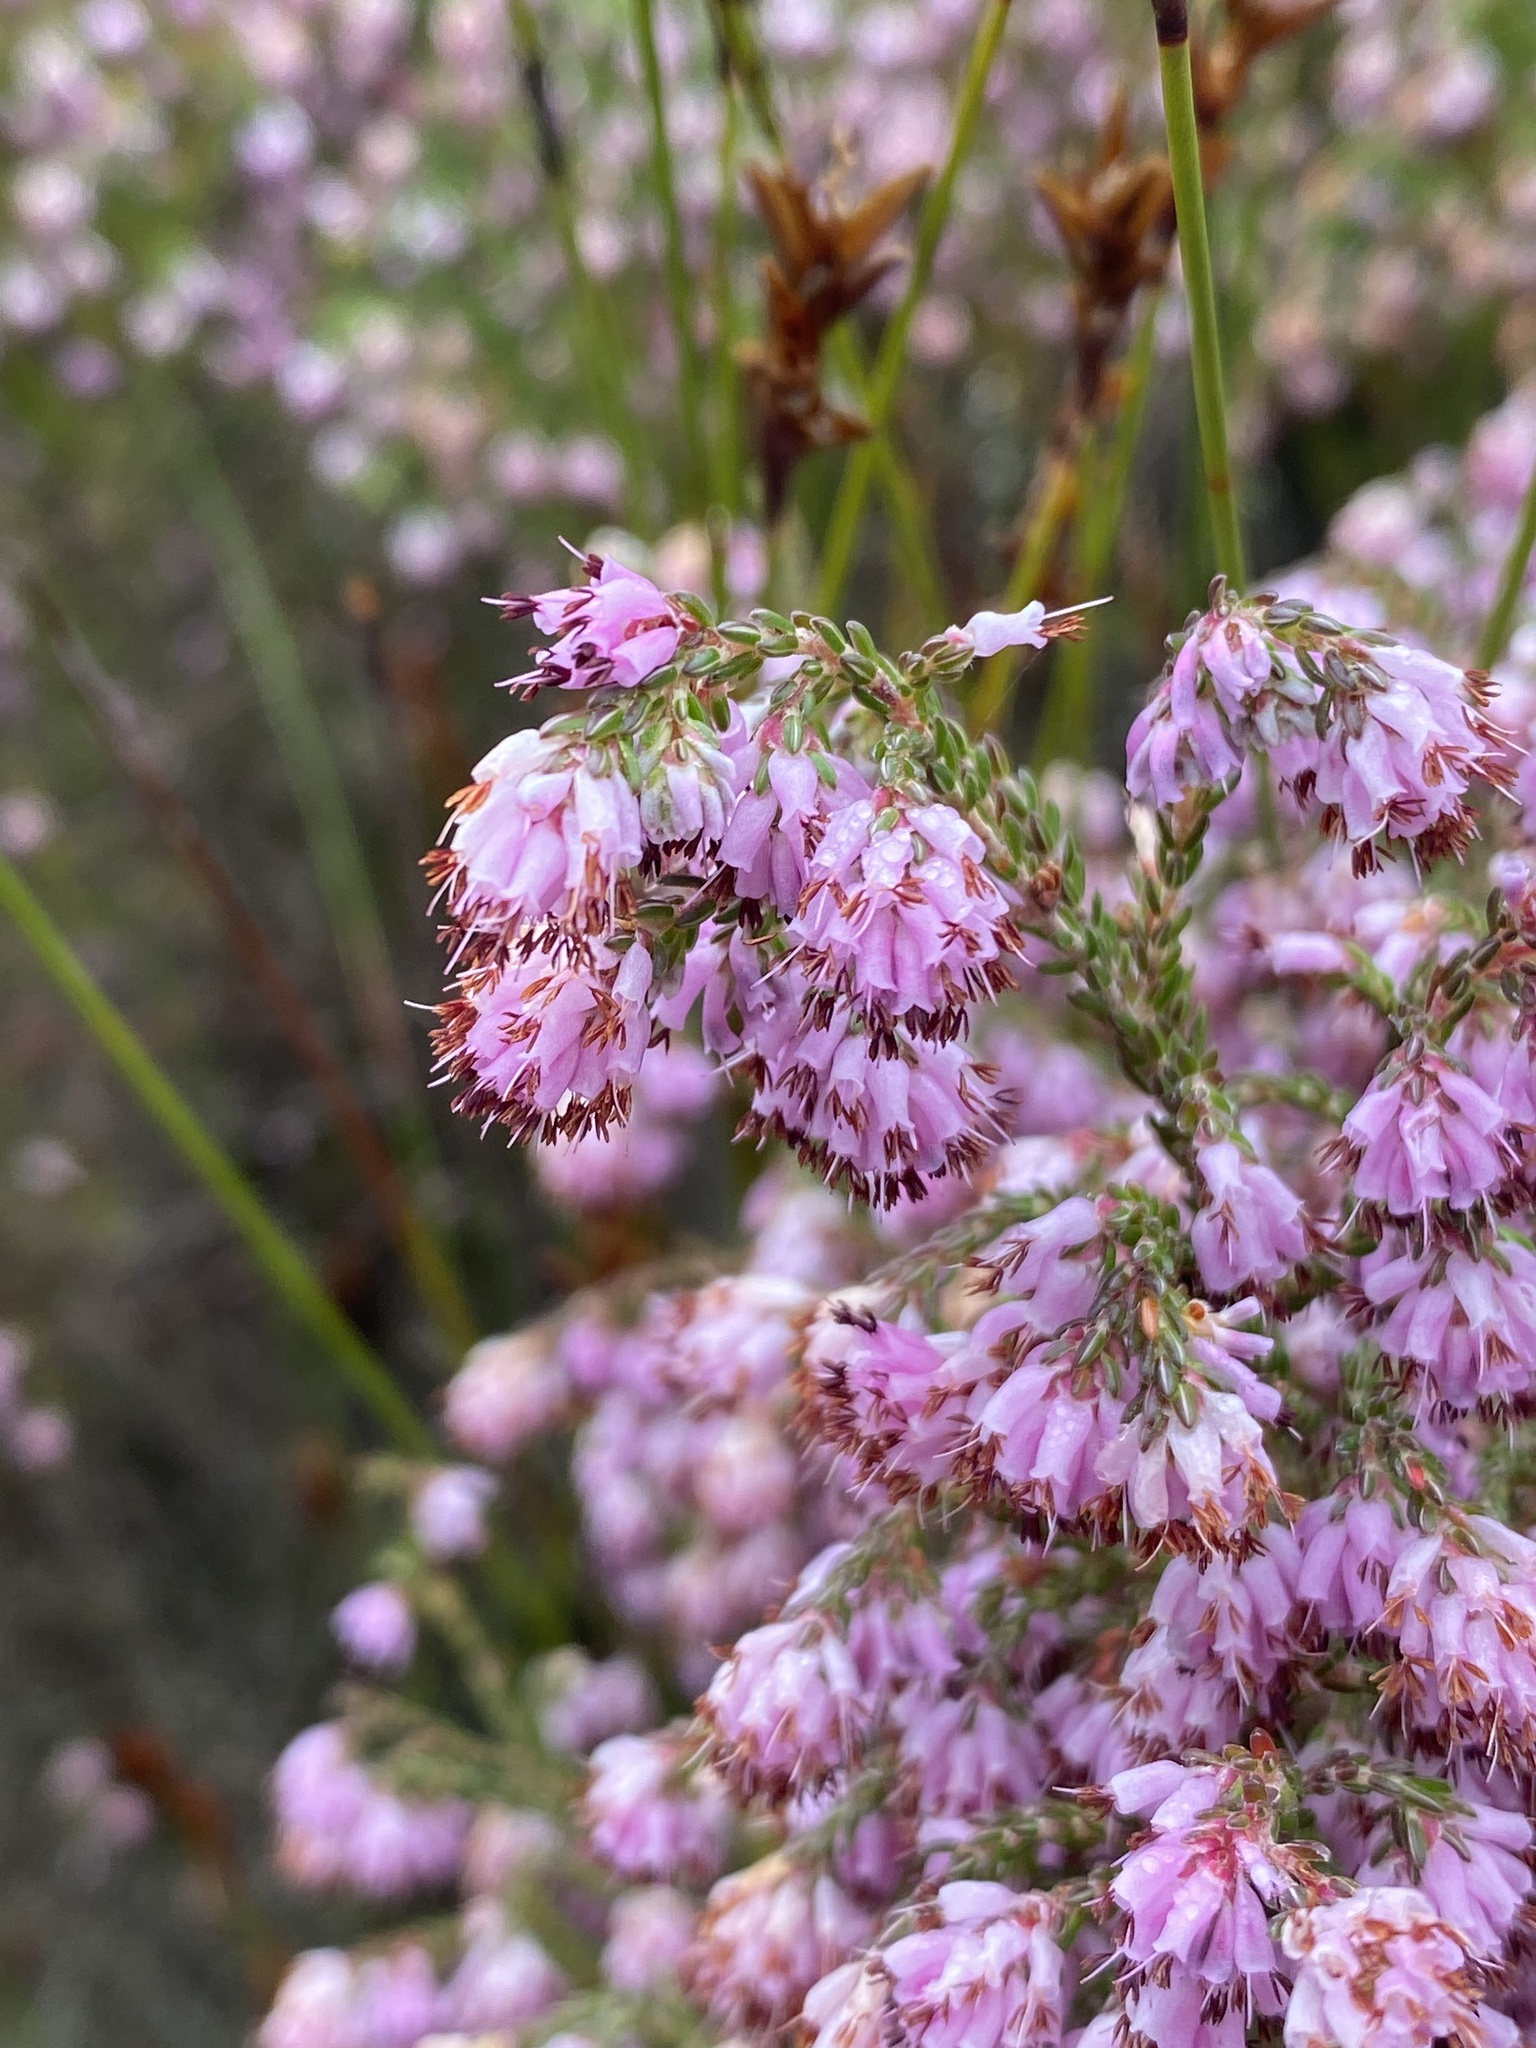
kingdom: Plantae
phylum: Tracheophyta
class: Magnoliopsida
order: Ericales
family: Ericaceae
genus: Erica
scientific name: Erica labialis
